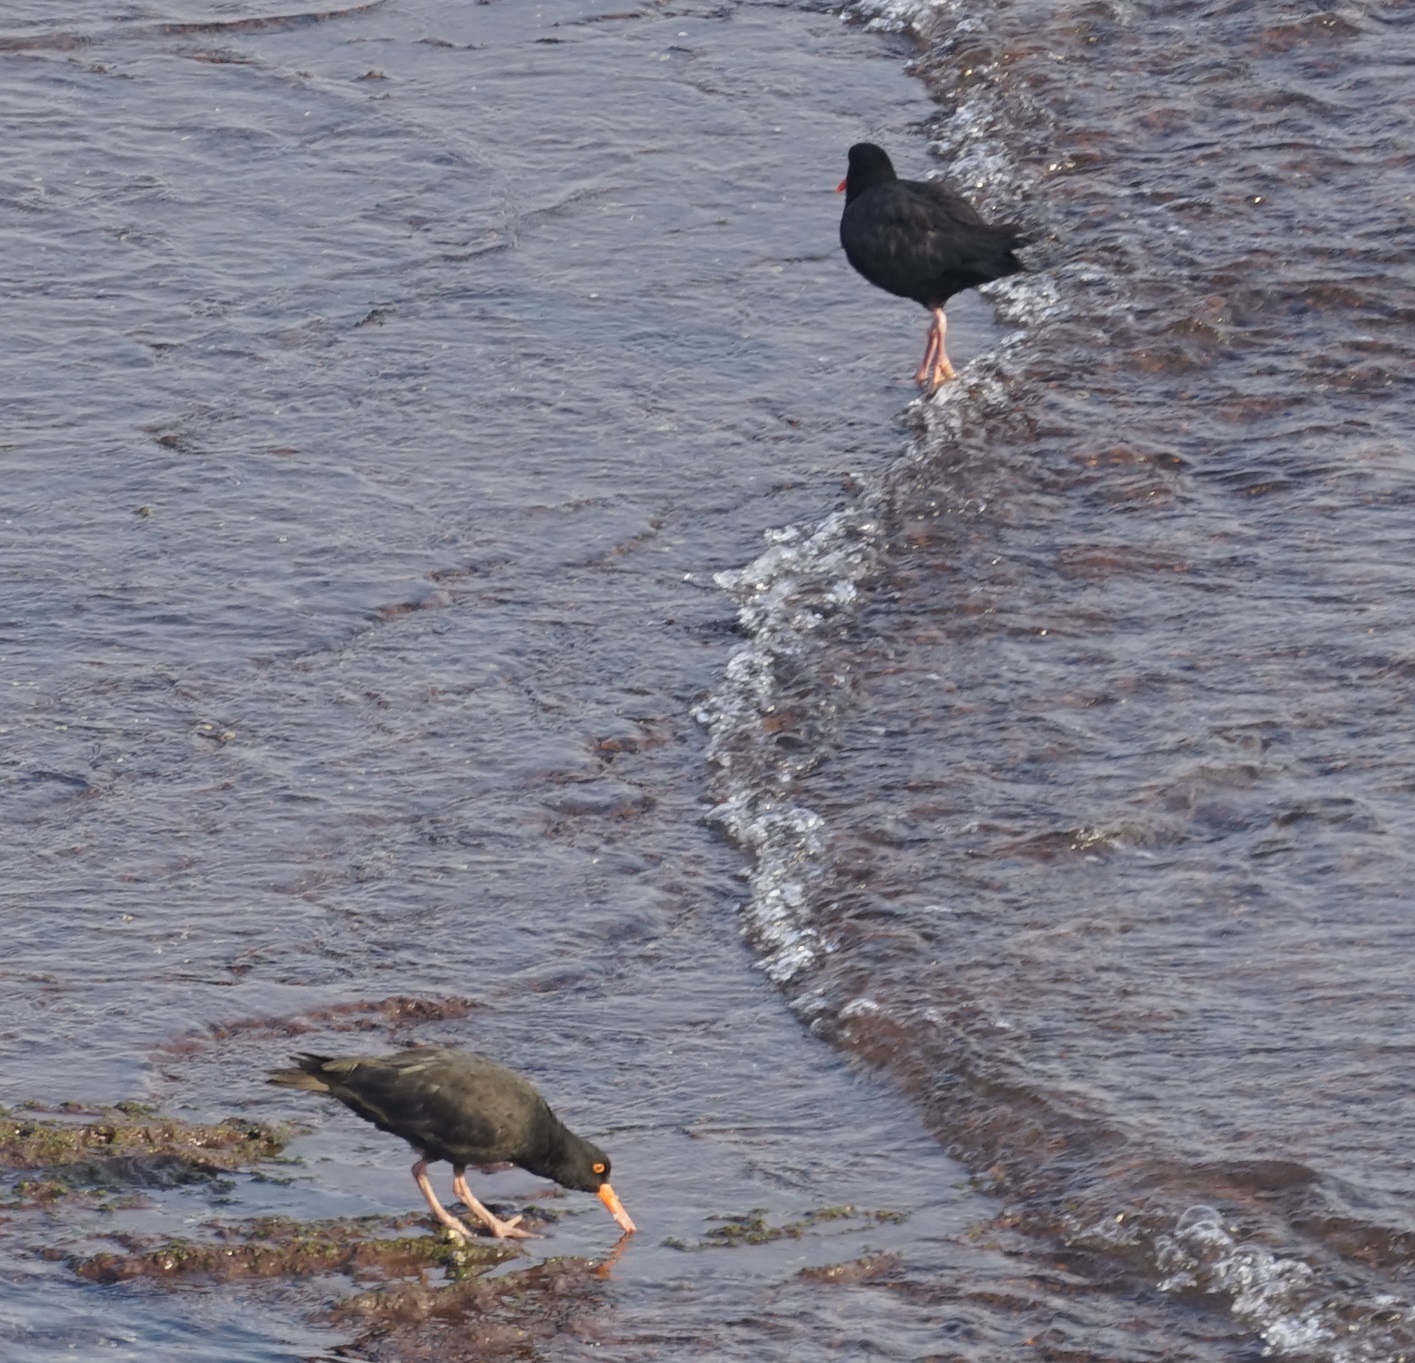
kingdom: Animalia
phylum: Chordata
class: Aves
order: Charadriiformes
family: Haematopodidae
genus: Haematopus
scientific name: Haematopus fuliginosus
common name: Sooty oystercatcher
